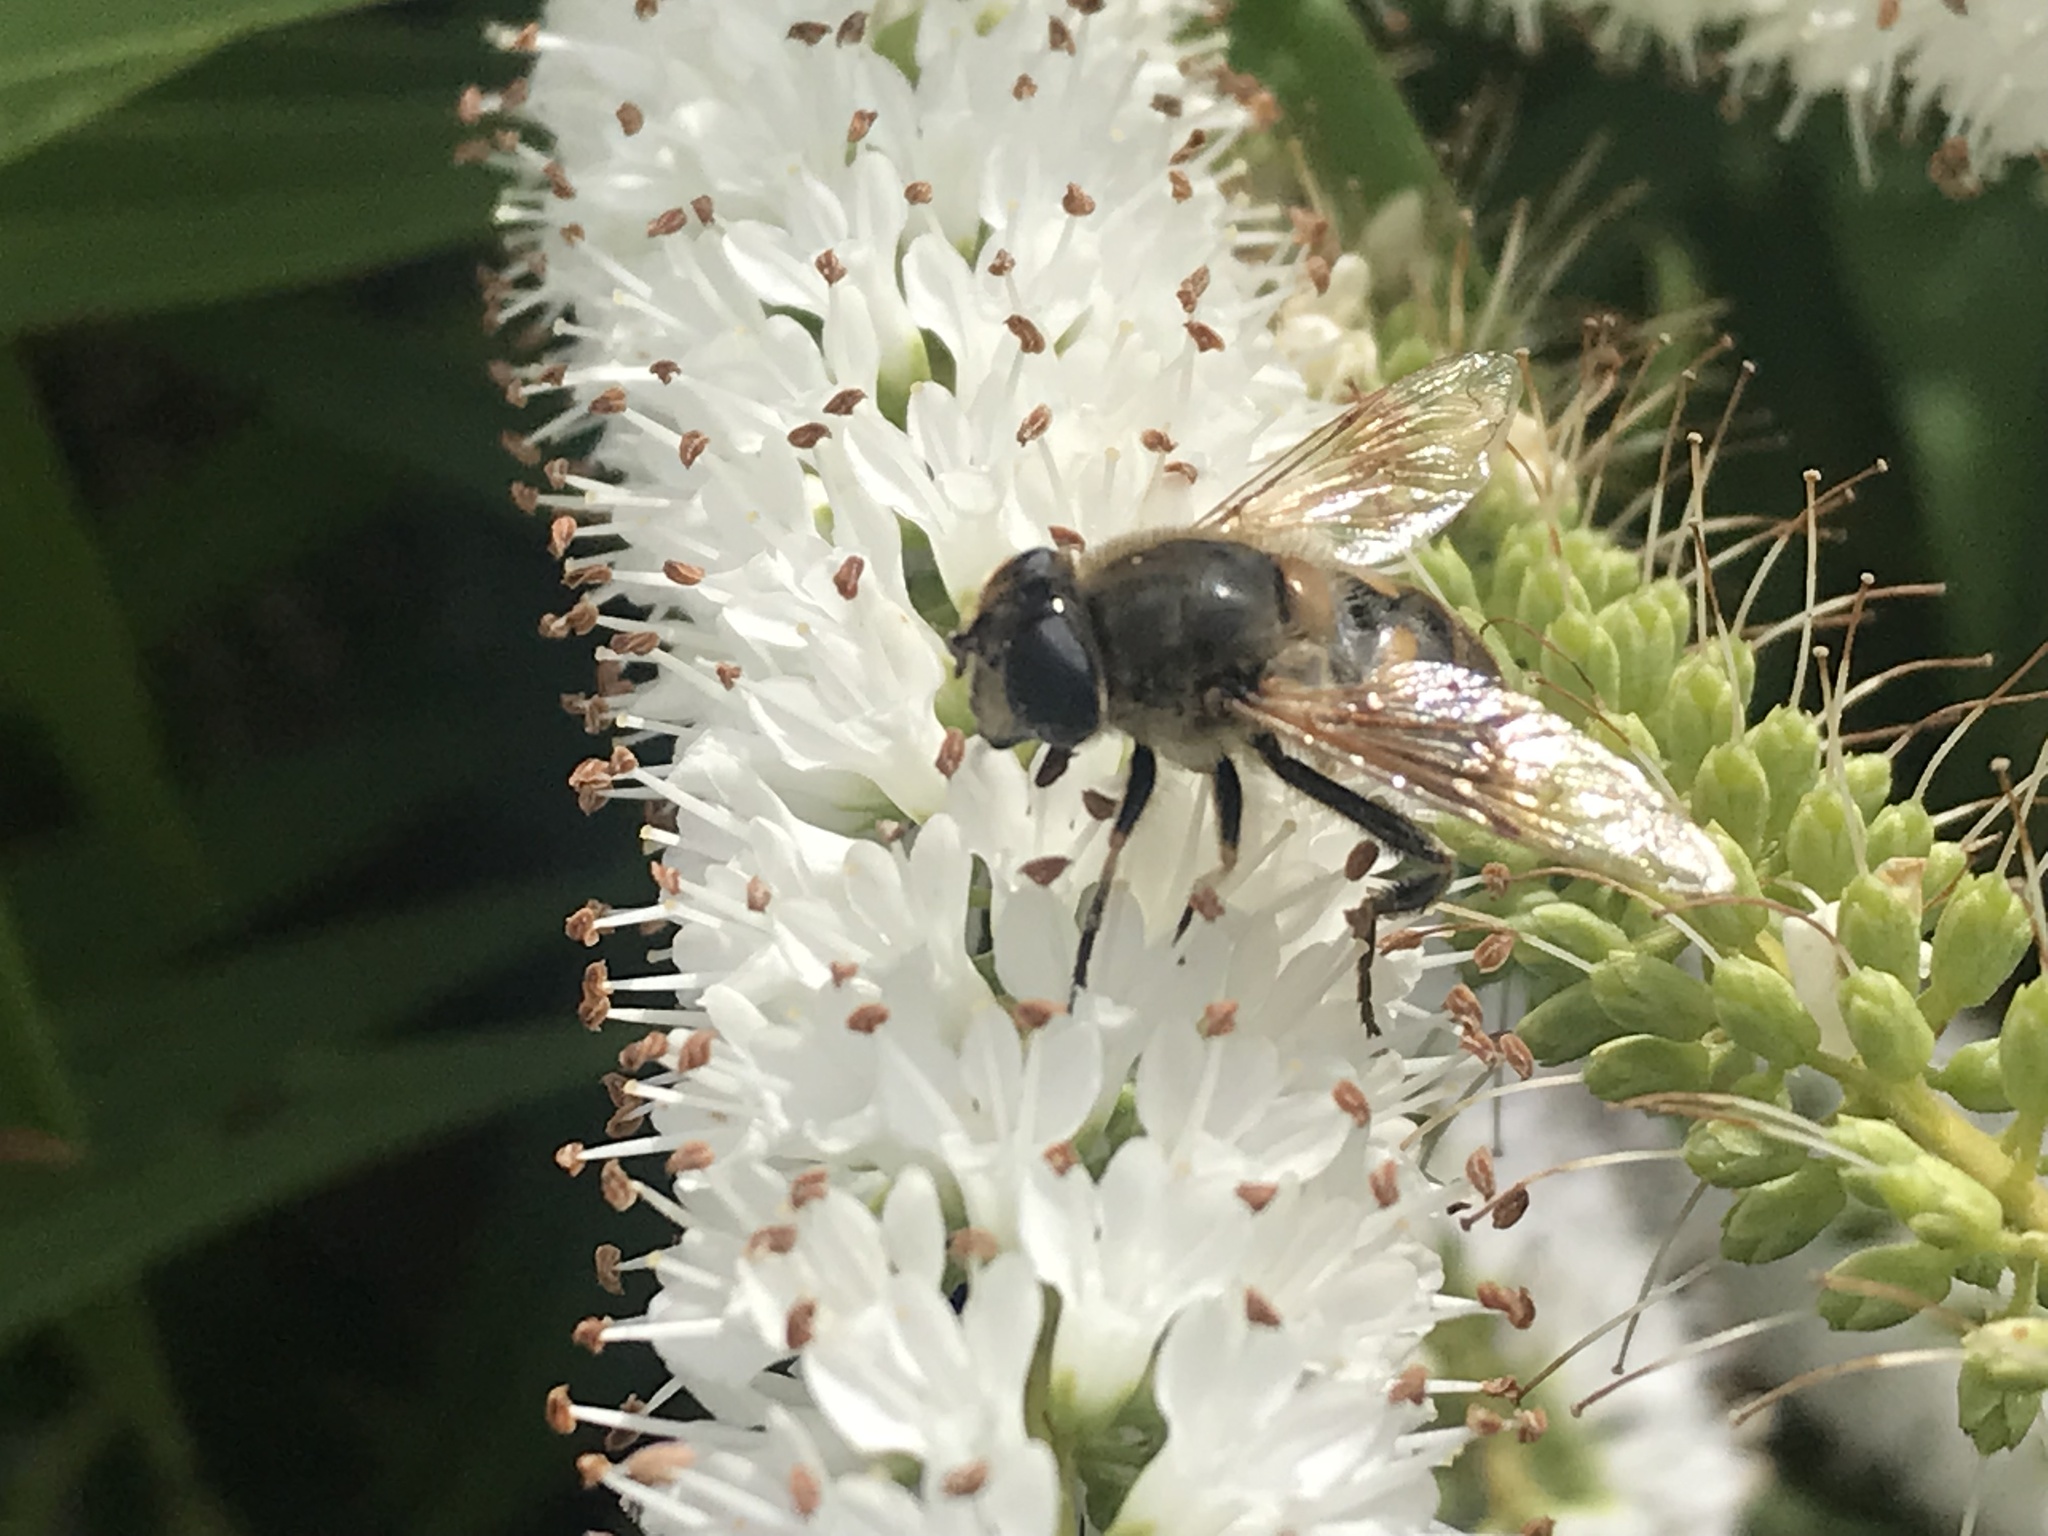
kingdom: Animalia
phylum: Arthropoda
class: Insecta
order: Diptera
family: Syrphidae
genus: Eristalis
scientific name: Eristalis tenax
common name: Drone fly
